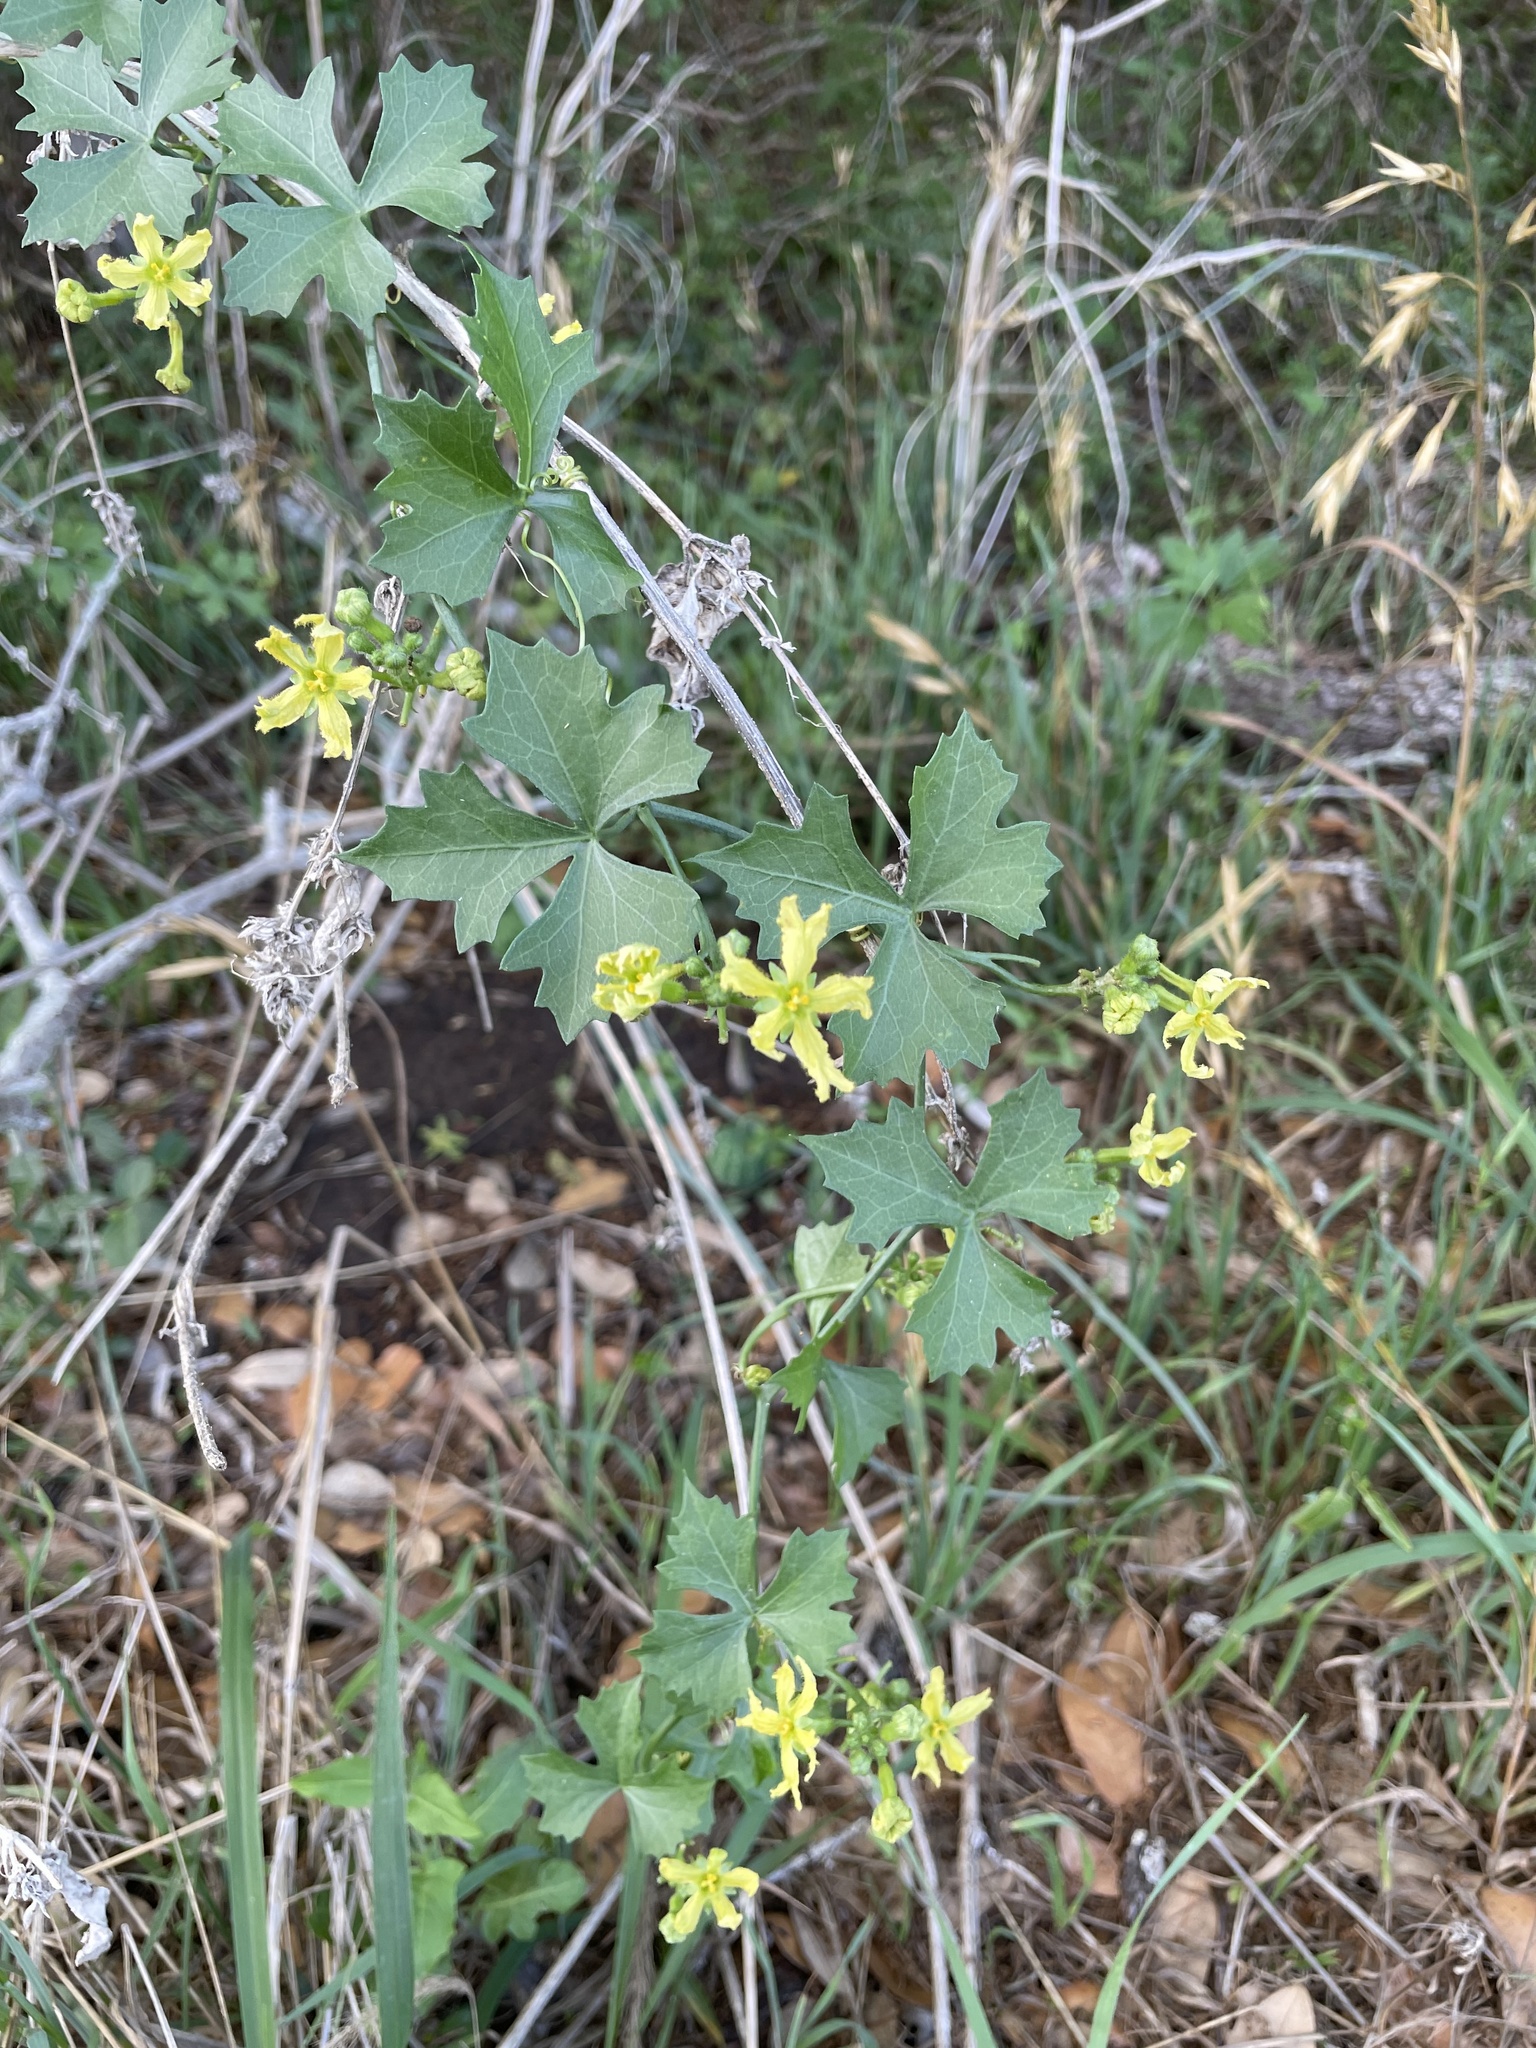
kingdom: Plantae
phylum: Tracheophyta
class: Magnoliopsida
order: Cucurbitales
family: Cucurbitaceae
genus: Ibervillea
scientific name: Ibervillea lindheimeri
